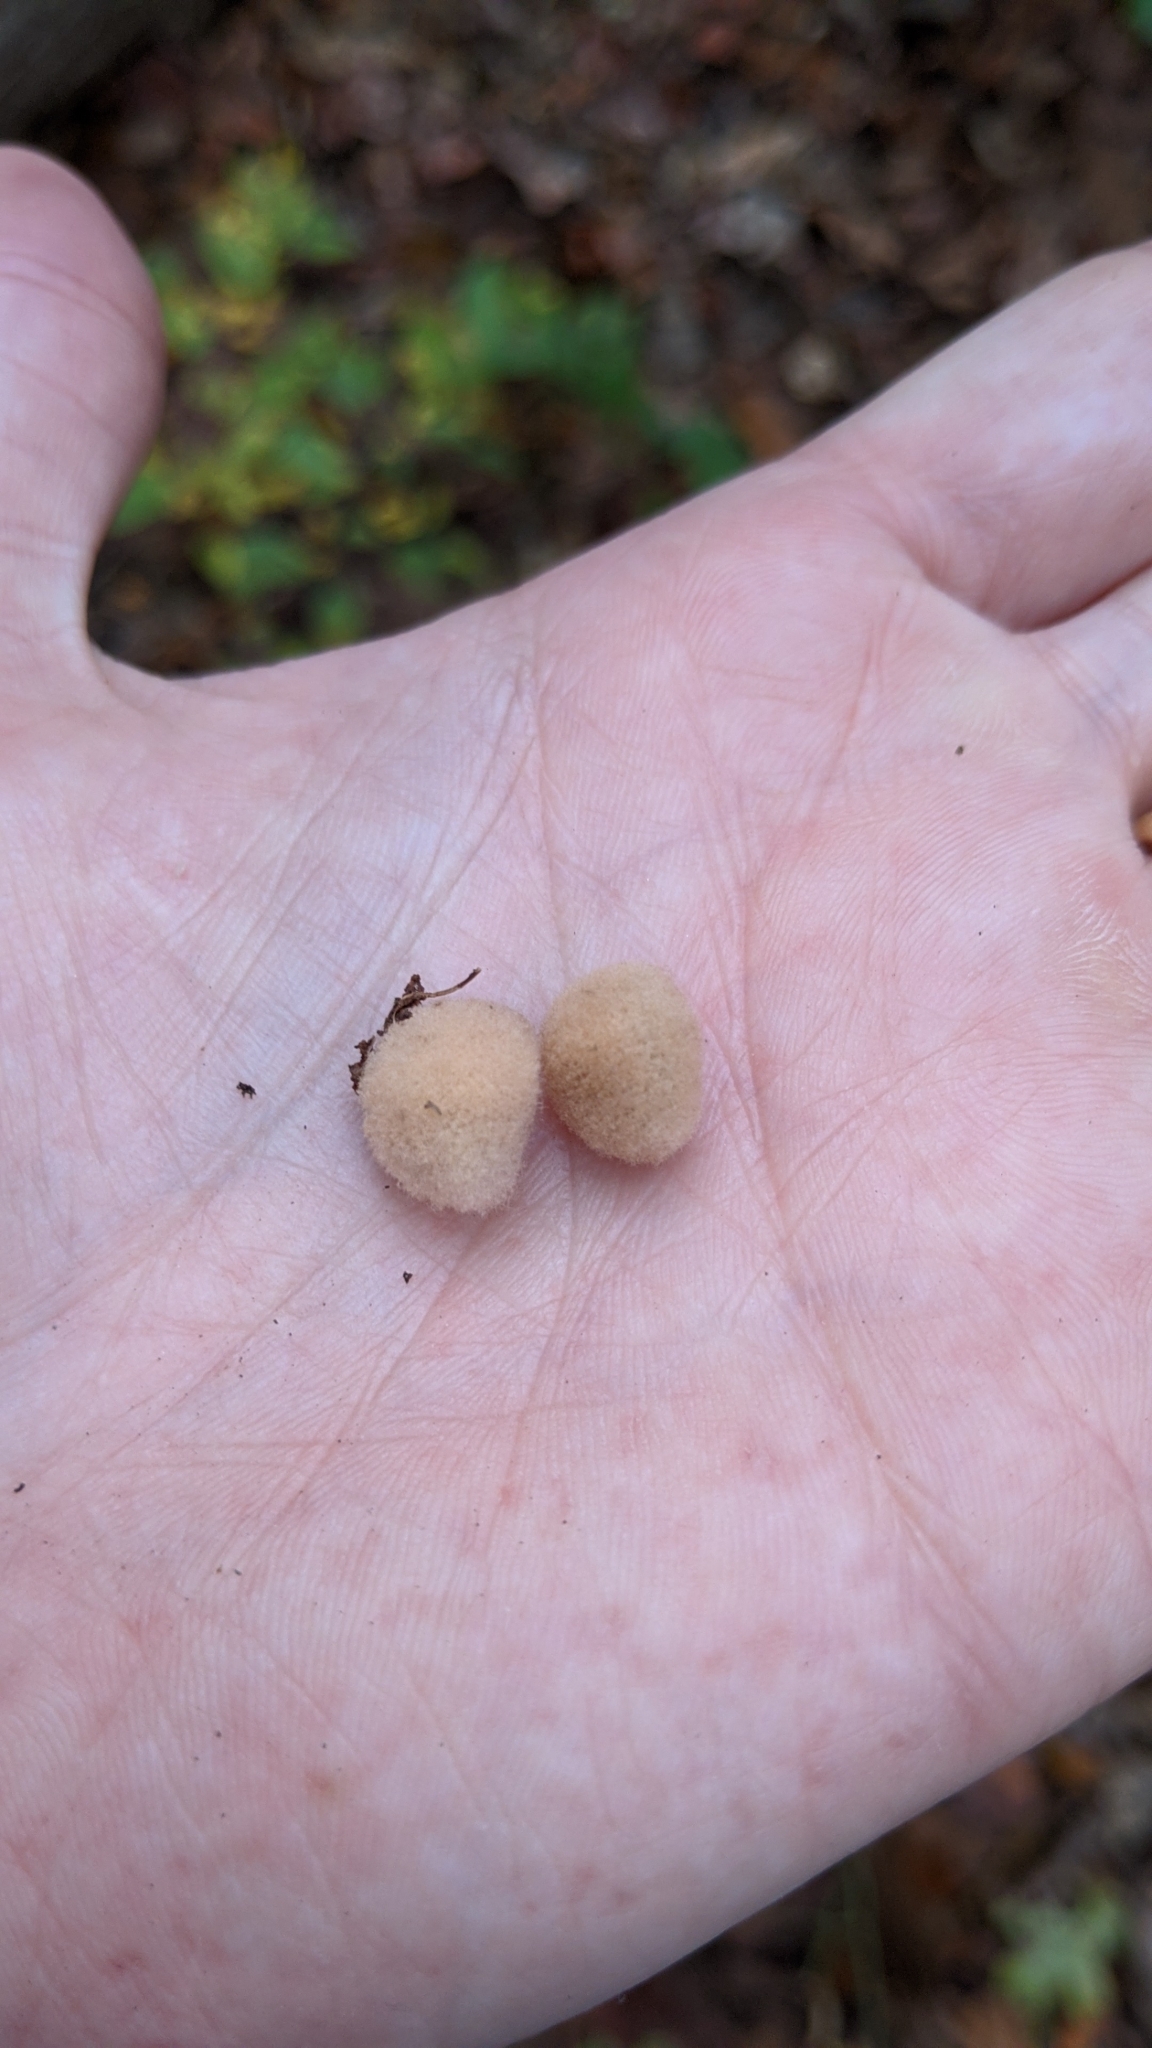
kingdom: Animalia
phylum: Arthropoda
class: Insecta
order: Hymenoptera
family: Cynipidae
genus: Callirhytis
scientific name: Callirhytis
